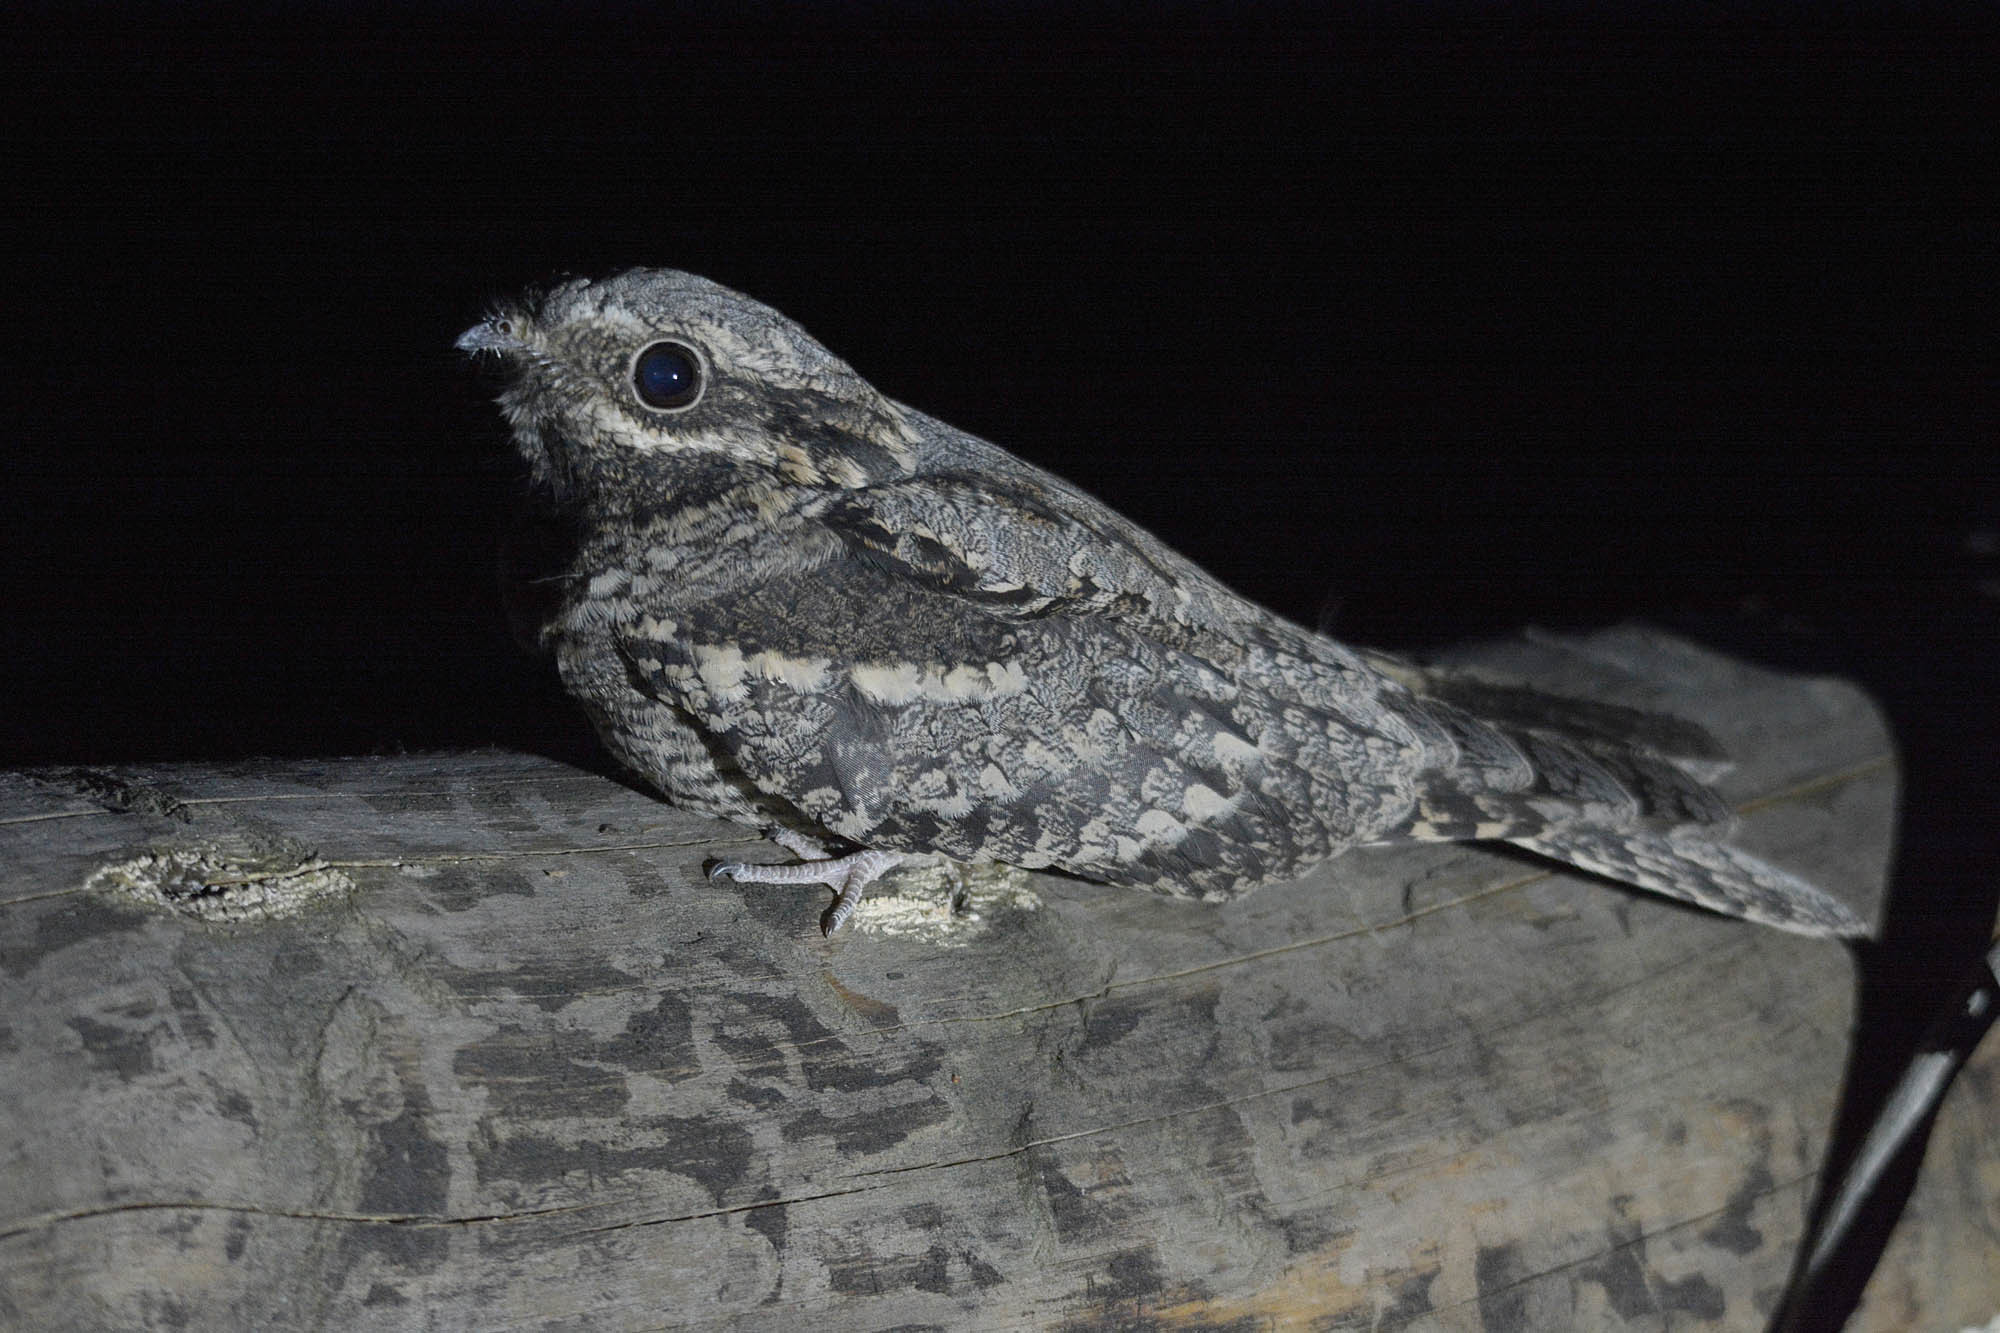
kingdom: Animalia
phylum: Chordata
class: Aves
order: Caprimulgiformes
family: Caprimulgidae
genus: Caprimulgus
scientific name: Caprimulgus europaeus
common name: European nightjar
